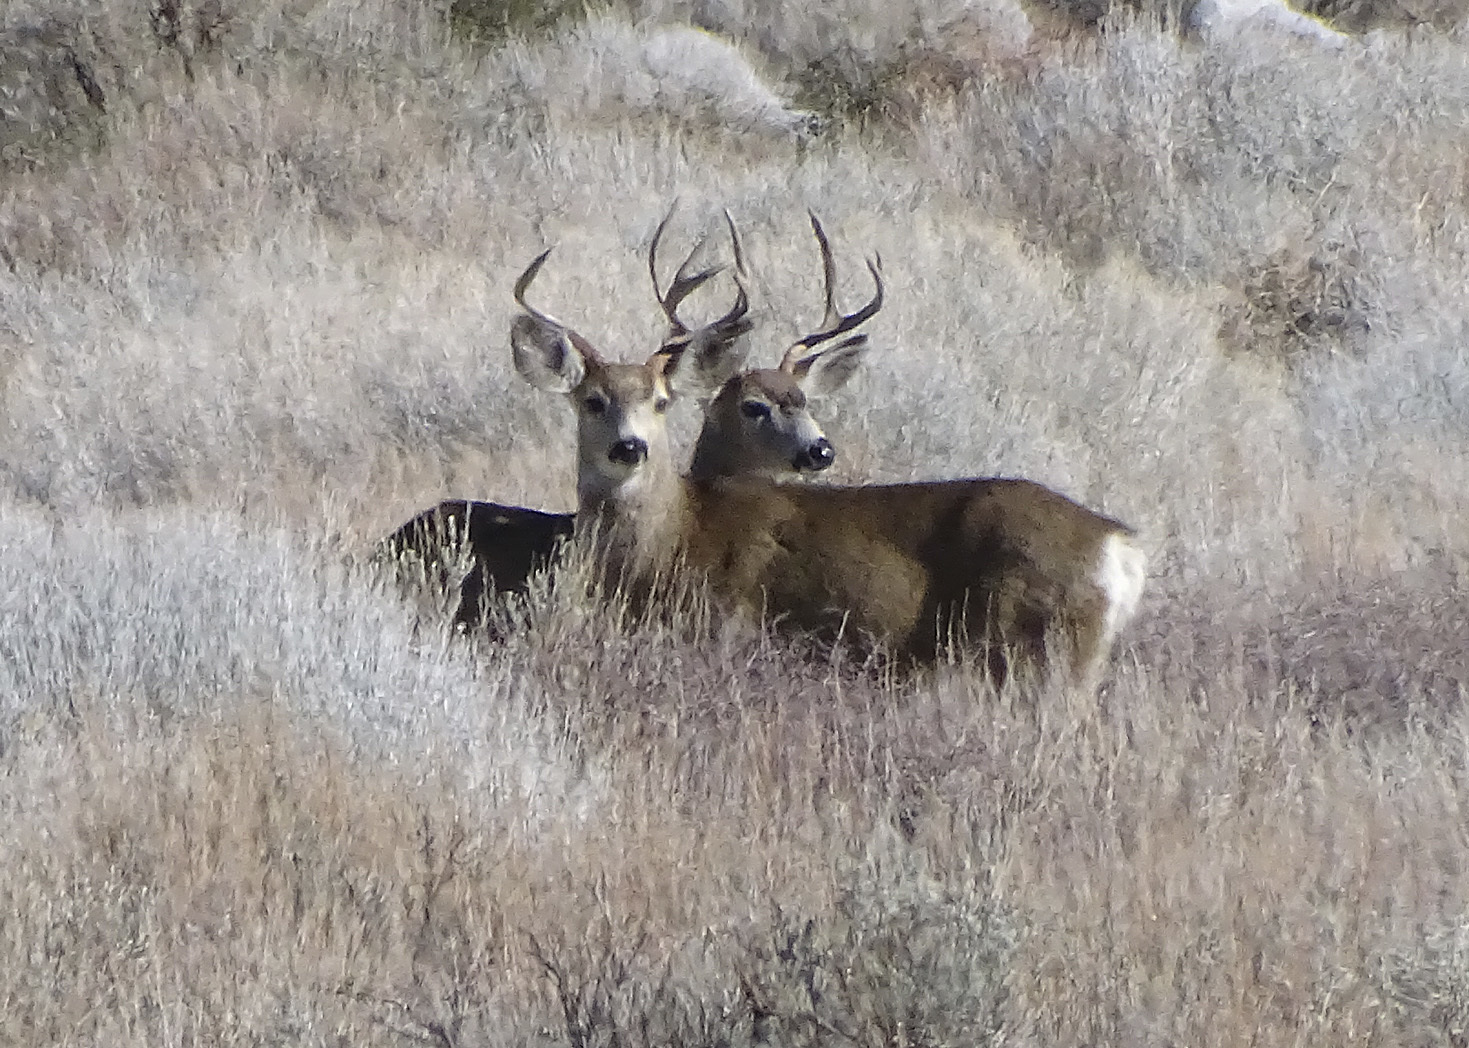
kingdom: Animalia
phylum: Chordata
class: Mammalia
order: Artiodactyla
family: Cervidae
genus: Odocoileus
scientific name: Odocoileus hemionus
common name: Mule deer
